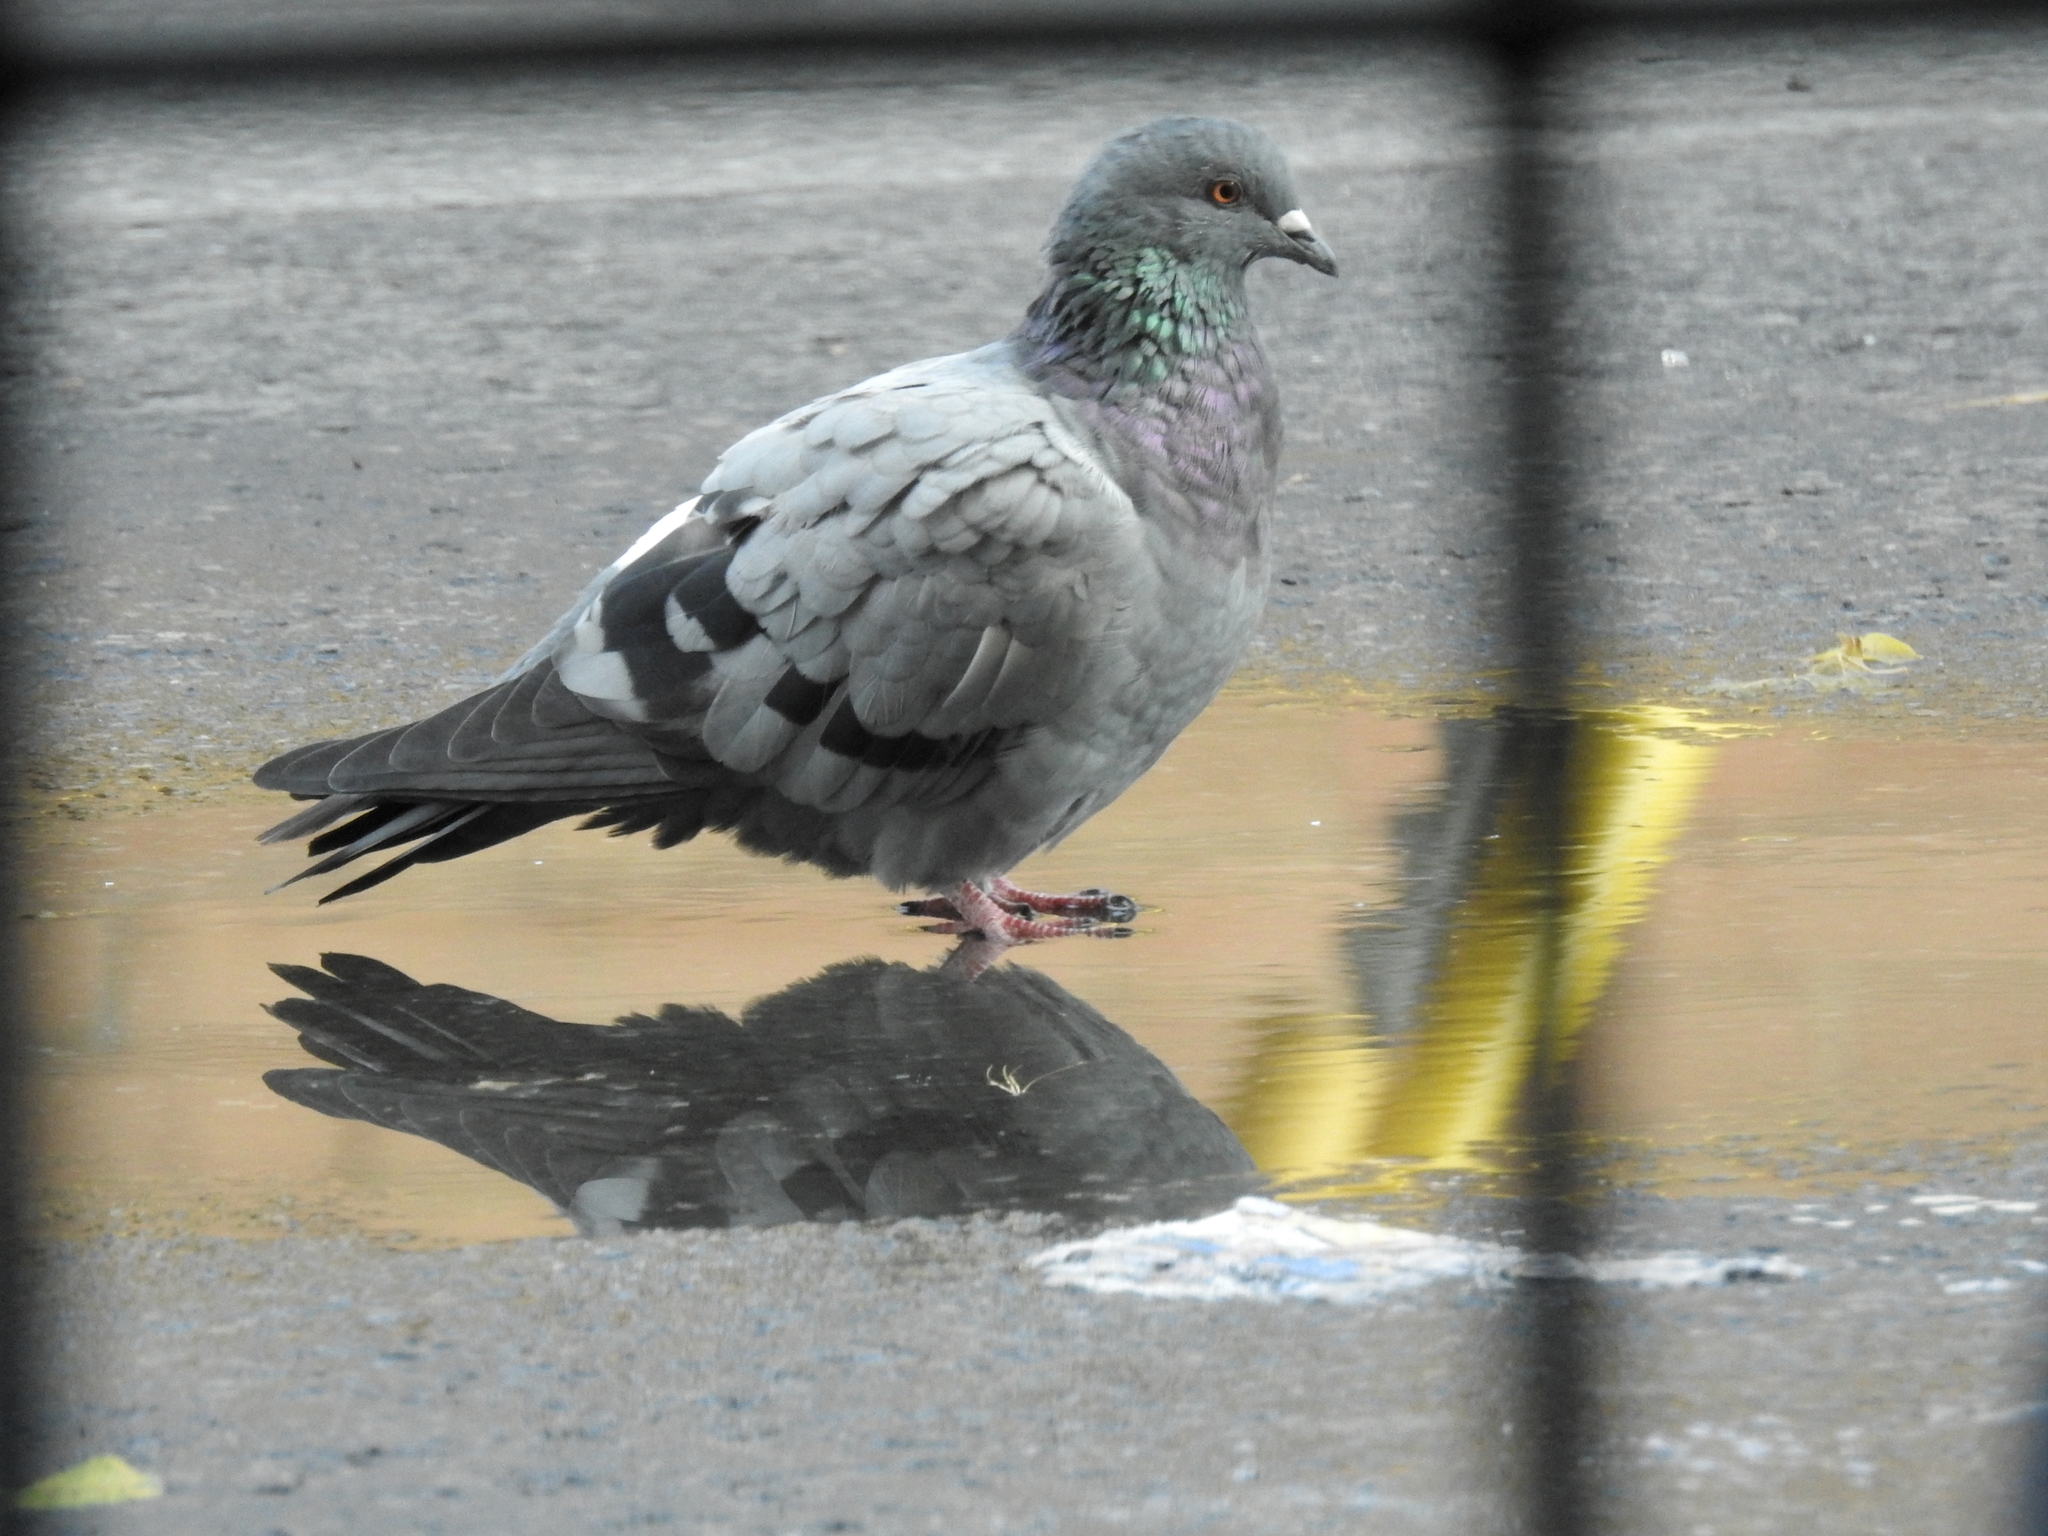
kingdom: Animalia
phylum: Chordata
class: Aves
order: Columbiformes
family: Columbidae
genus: Columba
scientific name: Columba livia
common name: Rock pigeon
